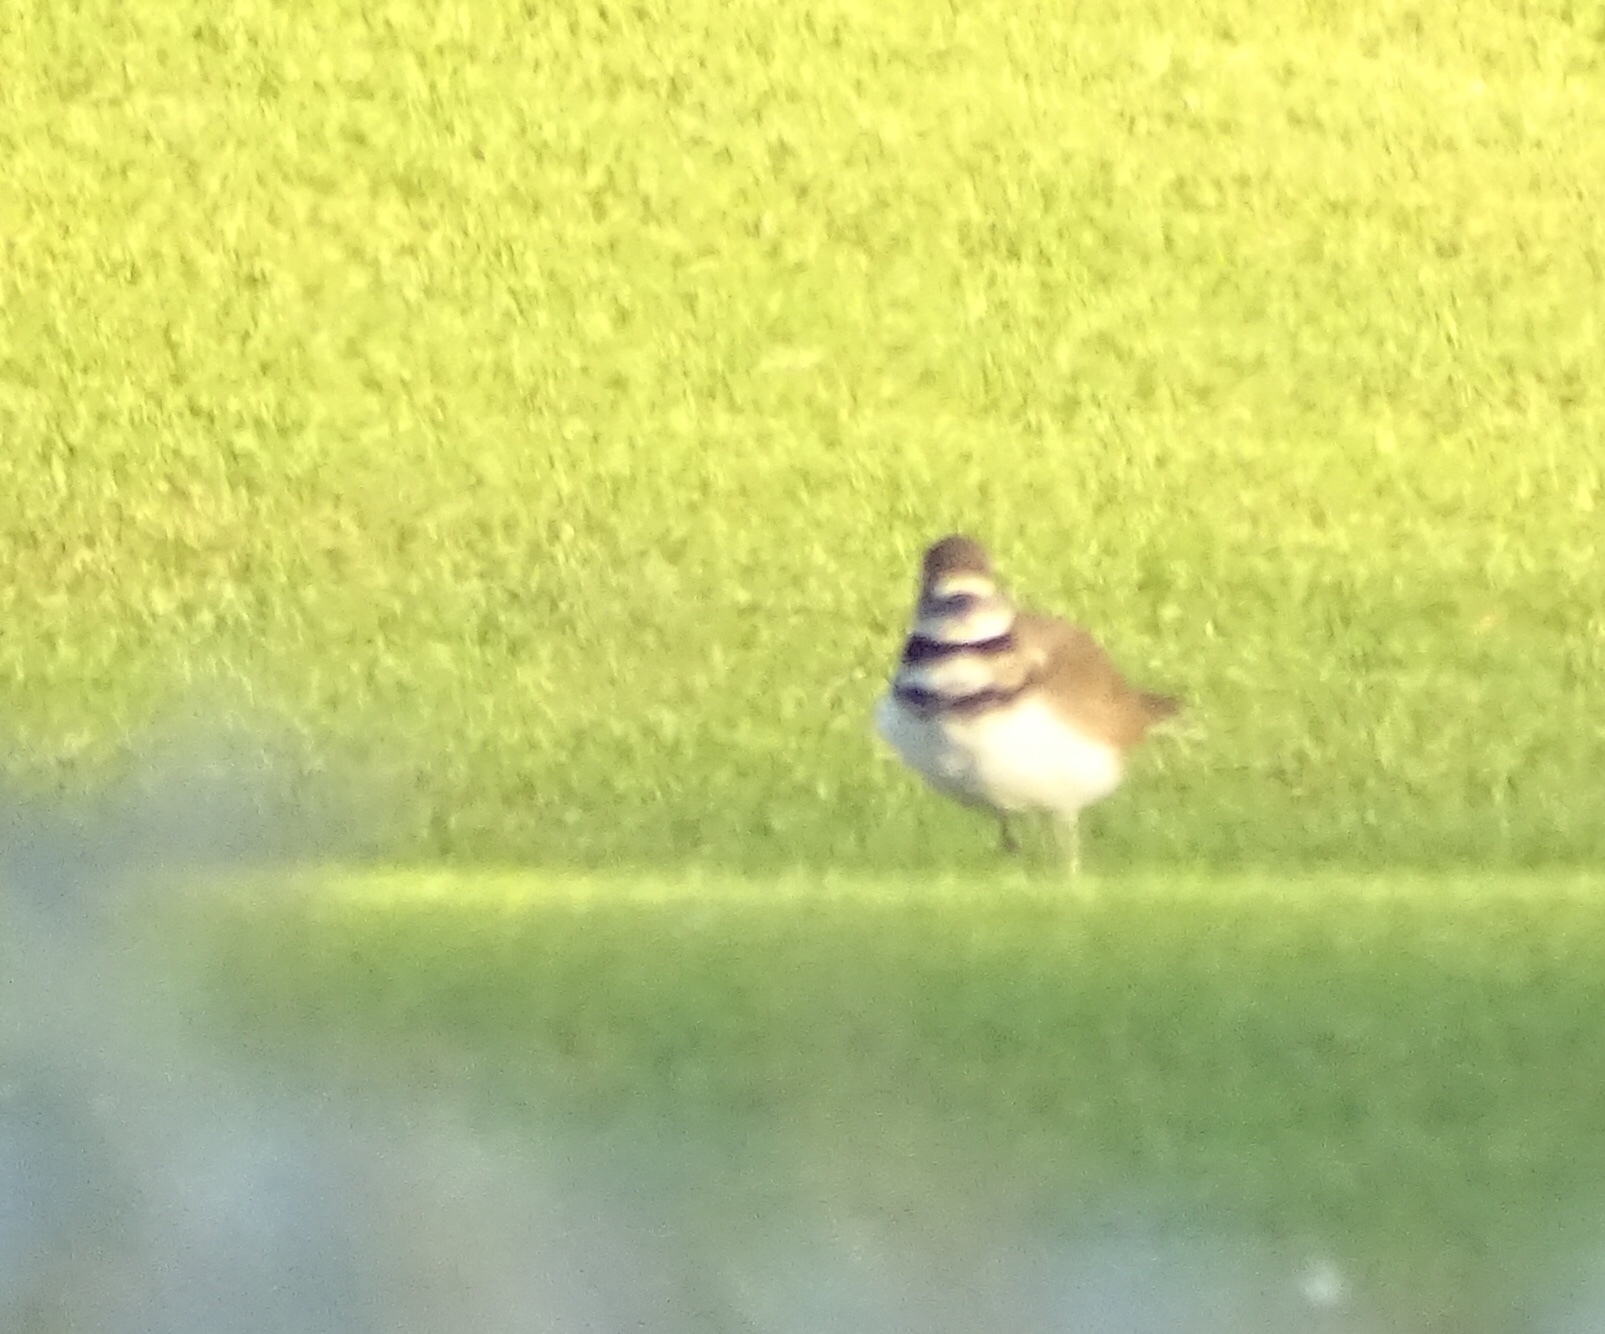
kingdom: Animalia
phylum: Chordata
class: Aves
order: Charadriiformes
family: Charadriidae
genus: Charadrius
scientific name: Charadrius vociferus
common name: Killdeer
